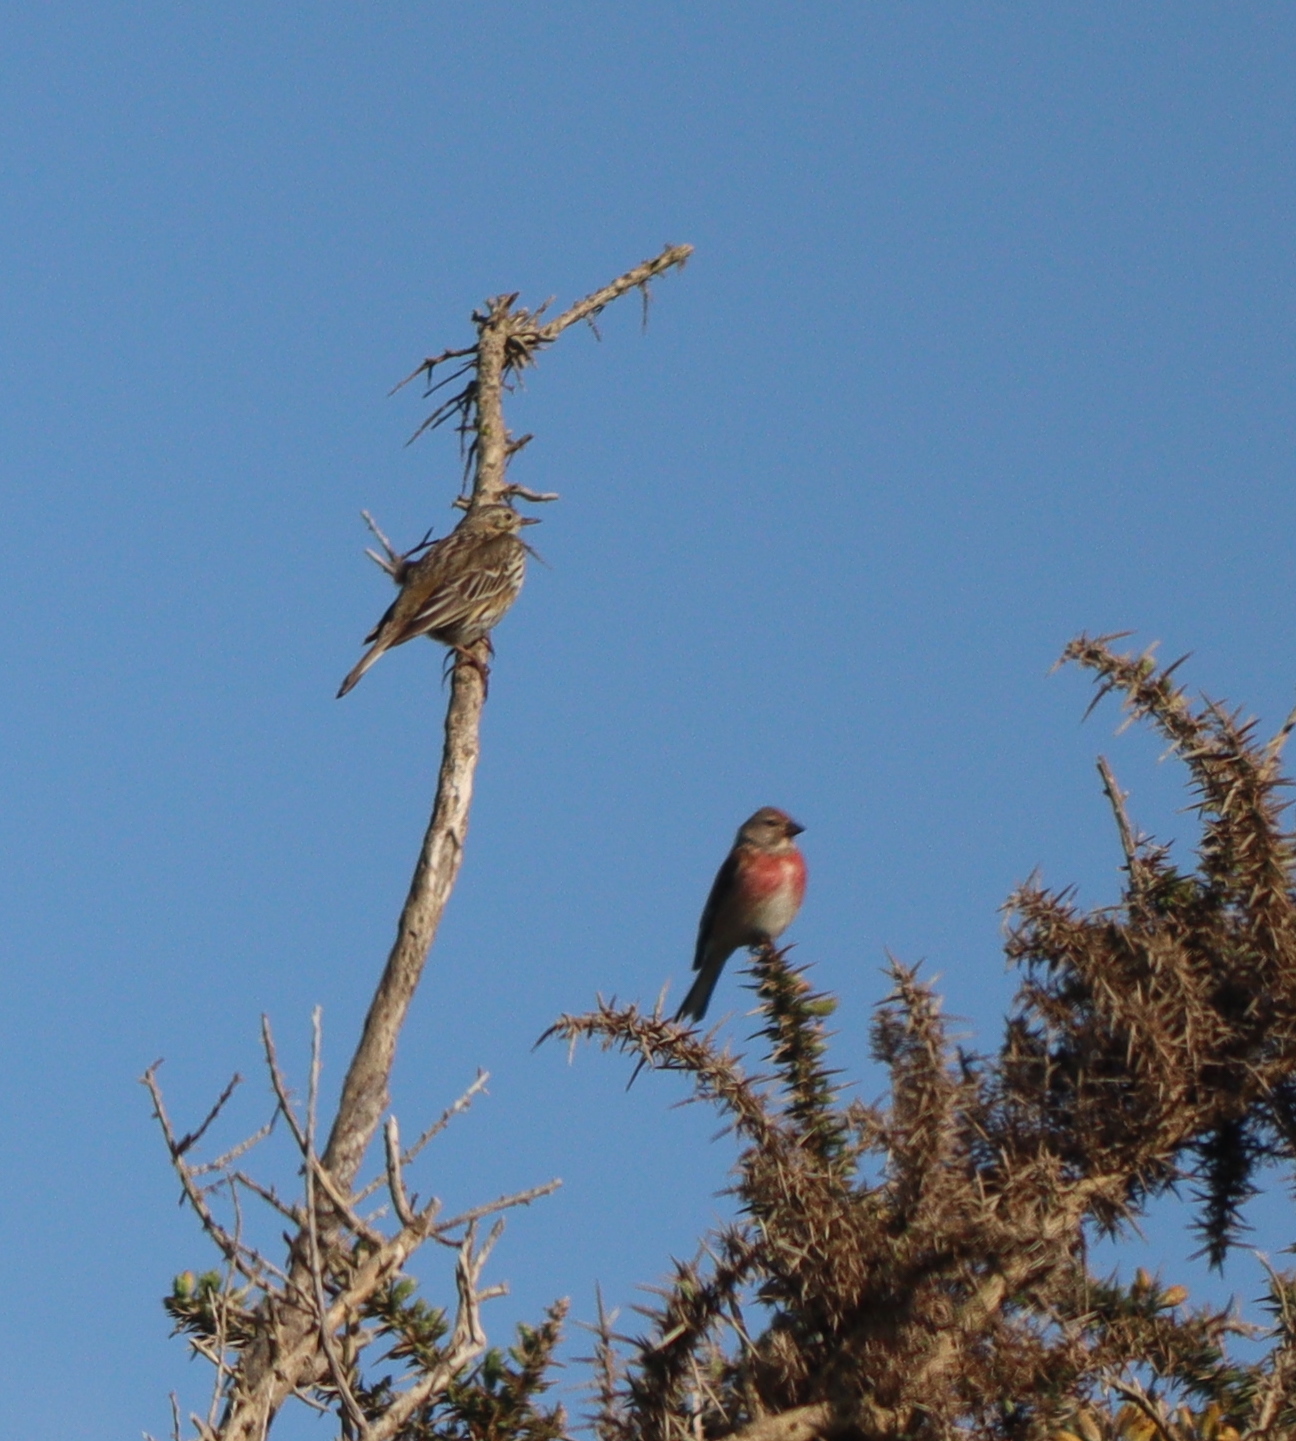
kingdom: Animalia
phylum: Chordata
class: Aves
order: Passeriformes
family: Fringillidae
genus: Linaria
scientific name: Linaria cannabina
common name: Common linnet
